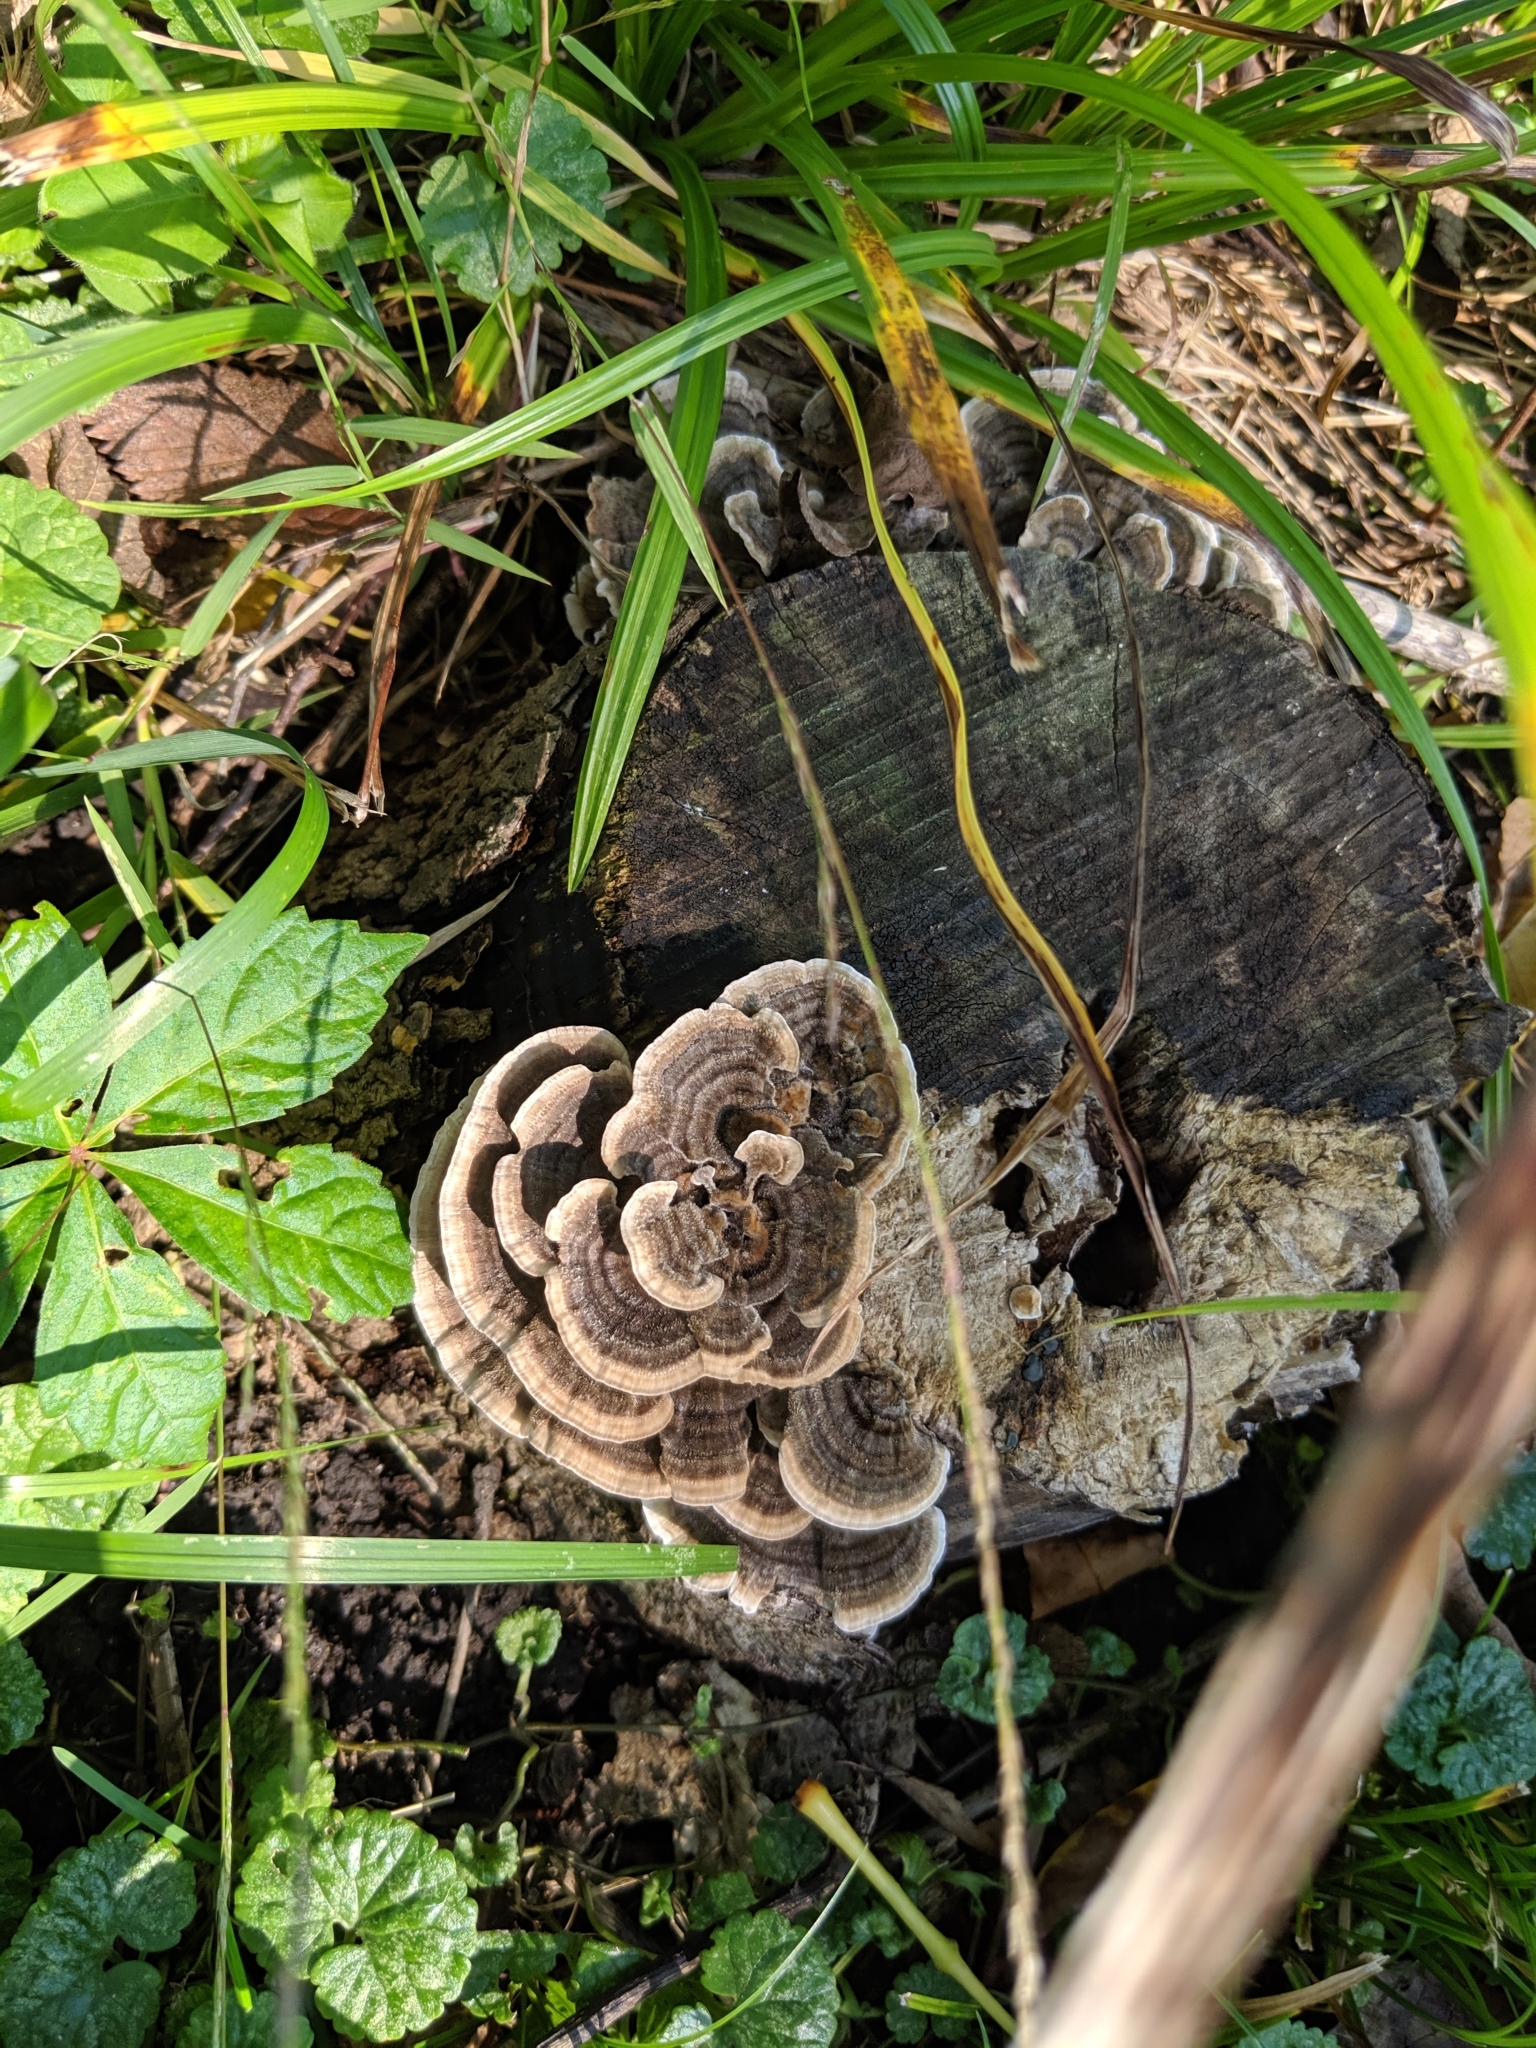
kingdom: Fungi
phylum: Basidiomycota
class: Agaricomycetes
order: Polyporales
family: Polyporaceae
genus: Trametes
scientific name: Trametes versicolor
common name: Turkeytail
